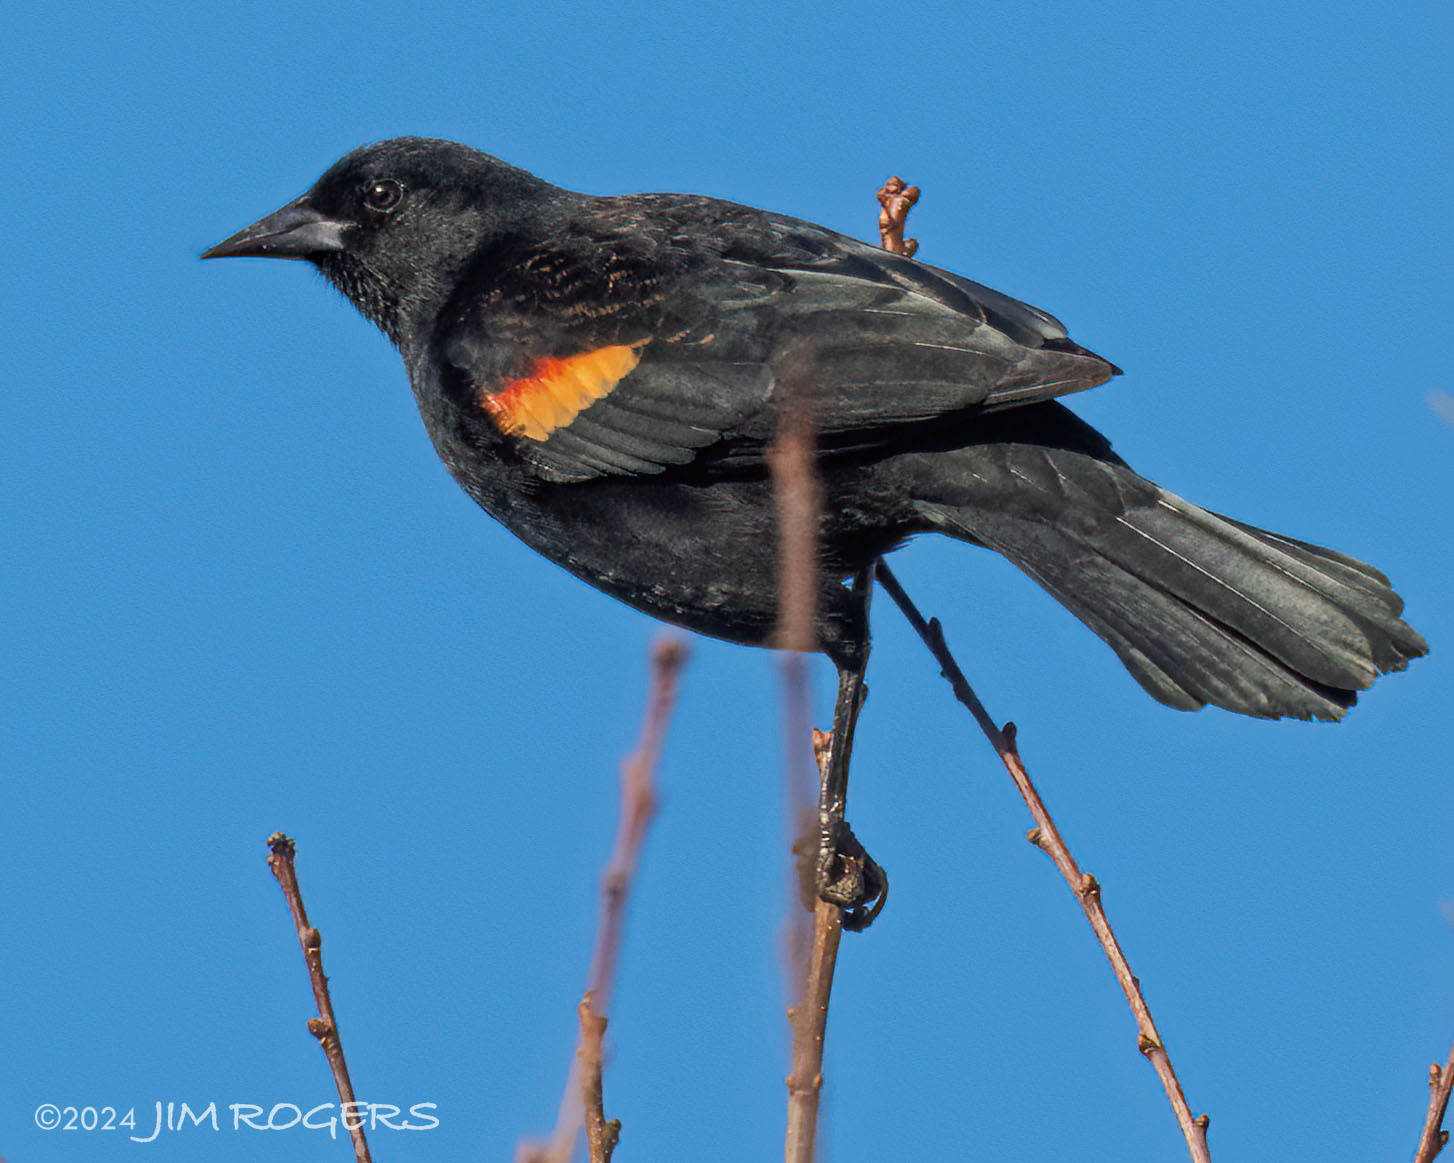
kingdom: Animalia
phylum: Chordata
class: Aves
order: Passeriformes
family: Icteridae
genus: Agelaius
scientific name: Agelaius phoeniceus
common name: Red-winged blackbird
